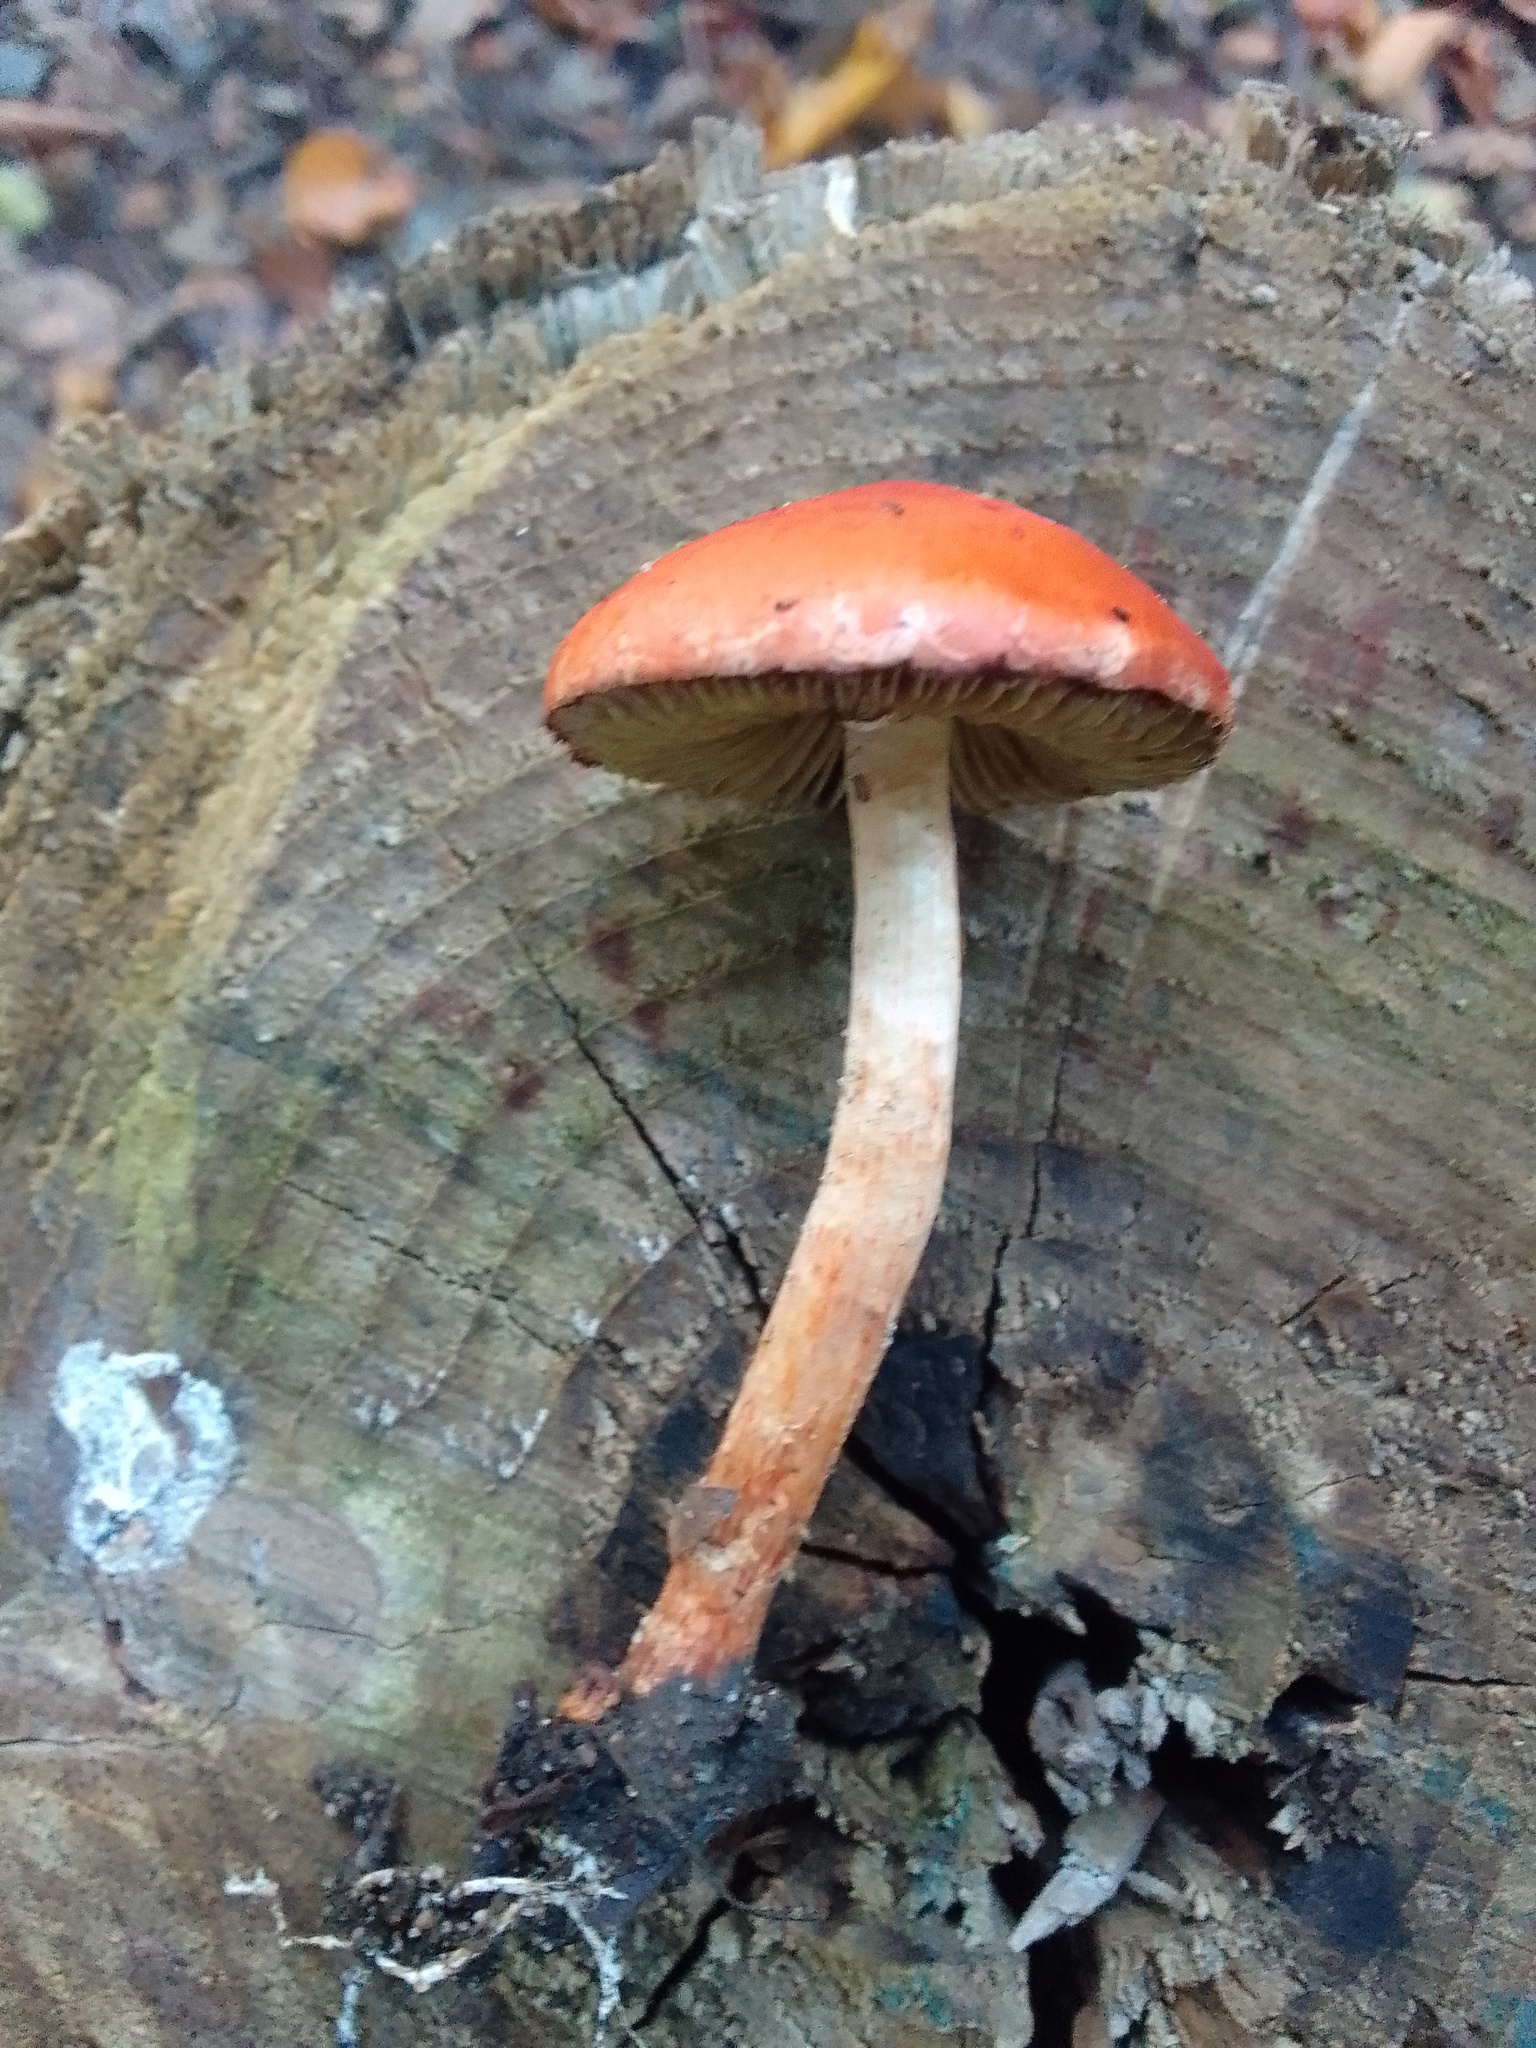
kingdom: Fungi
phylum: Basidiomycota
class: Agaricomycetes
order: Agaricales
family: Strophariaceae
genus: Leratiomyces
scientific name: Leratiomyces ceres
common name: Redlead roundhead
